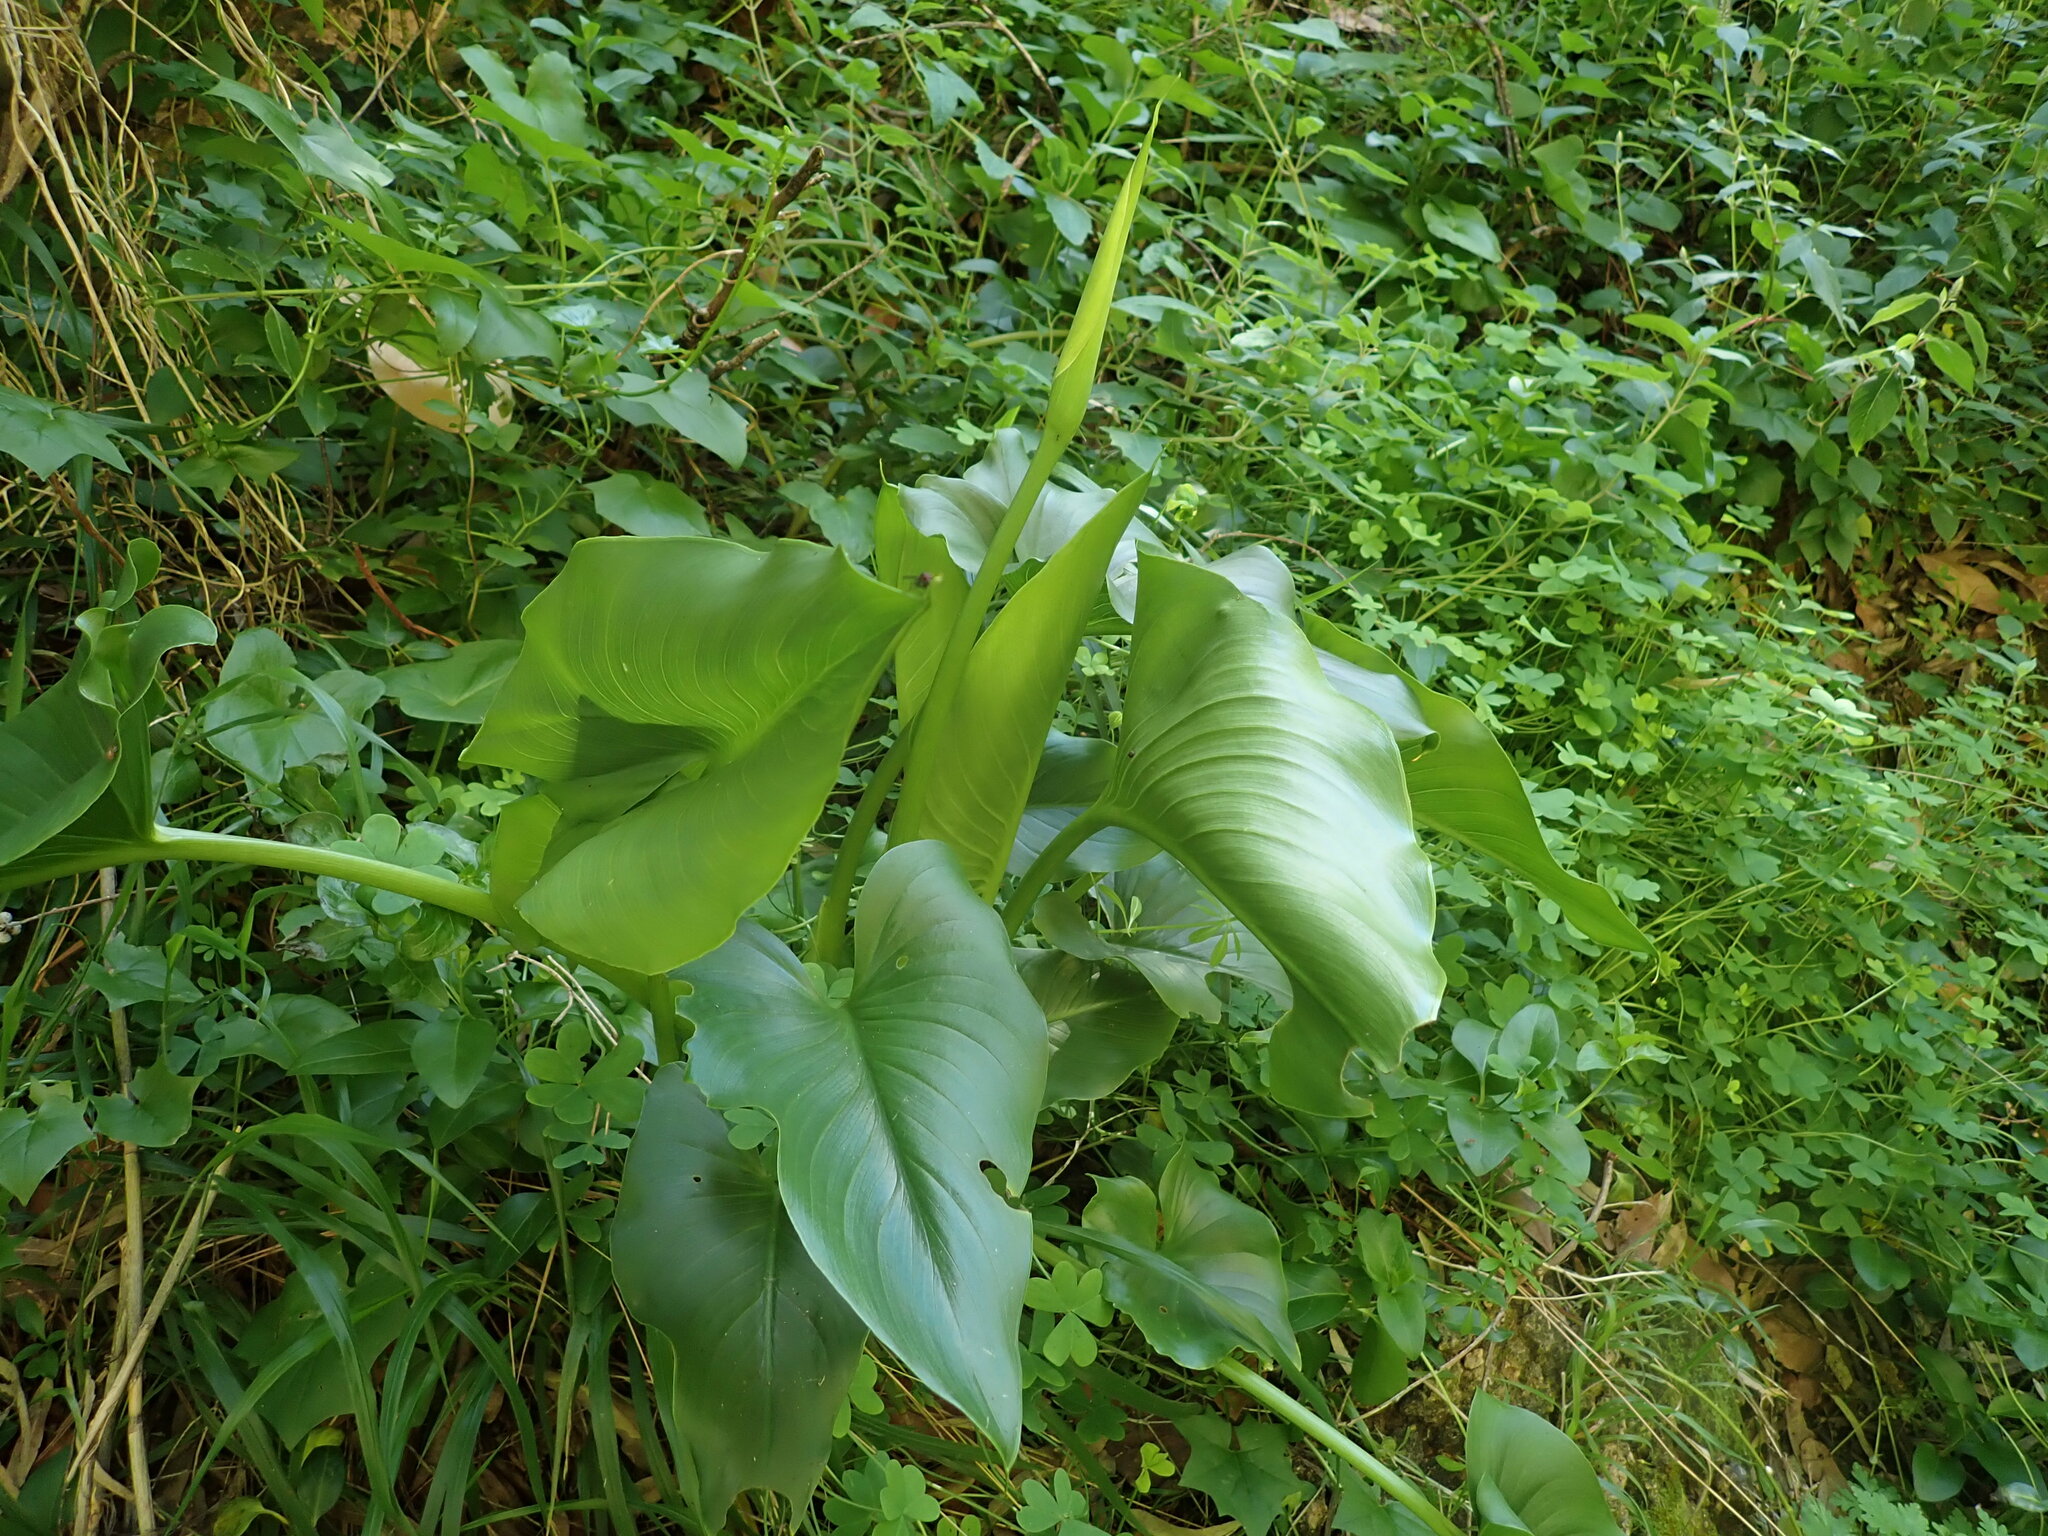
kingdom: Plantae
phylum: Tracheophyta
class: Liliopsida
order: Alismatales
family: Araceae
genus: Zantedeschia
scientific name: Zantedeschia aethiopica
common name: Altar-lily
